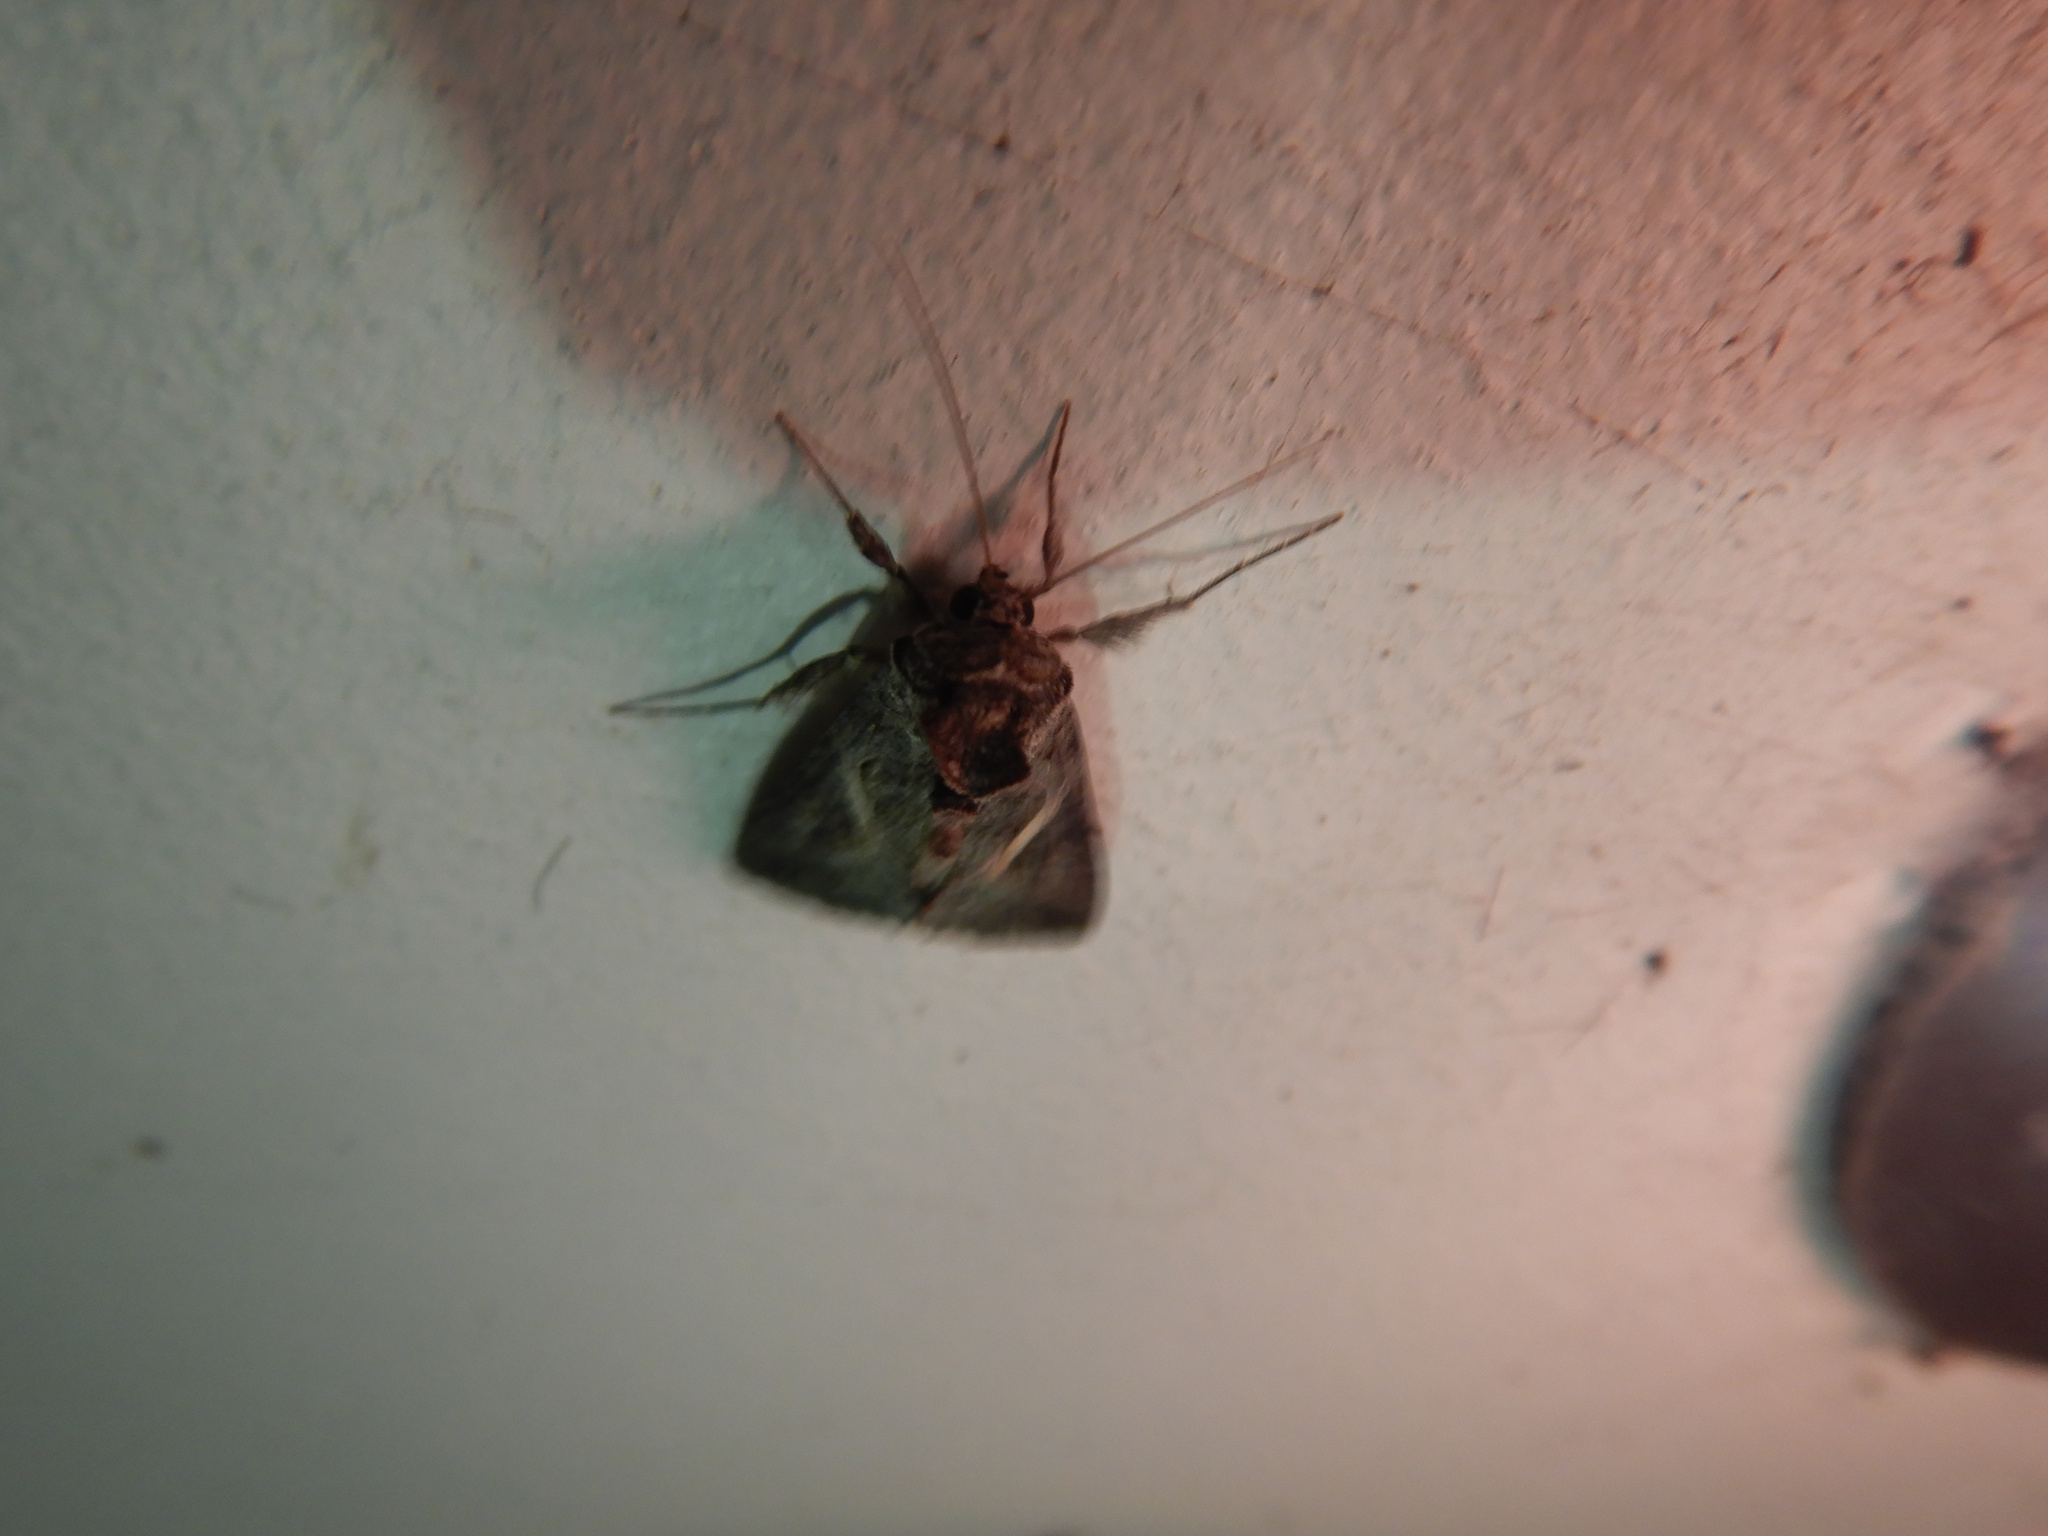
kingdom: Animalia
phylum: Arthropoda
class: Insecta
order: Lepidoptera
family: Noctuidae
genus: Ctenoplusia
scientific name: Ctenoplusia albostriata
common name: Moth
